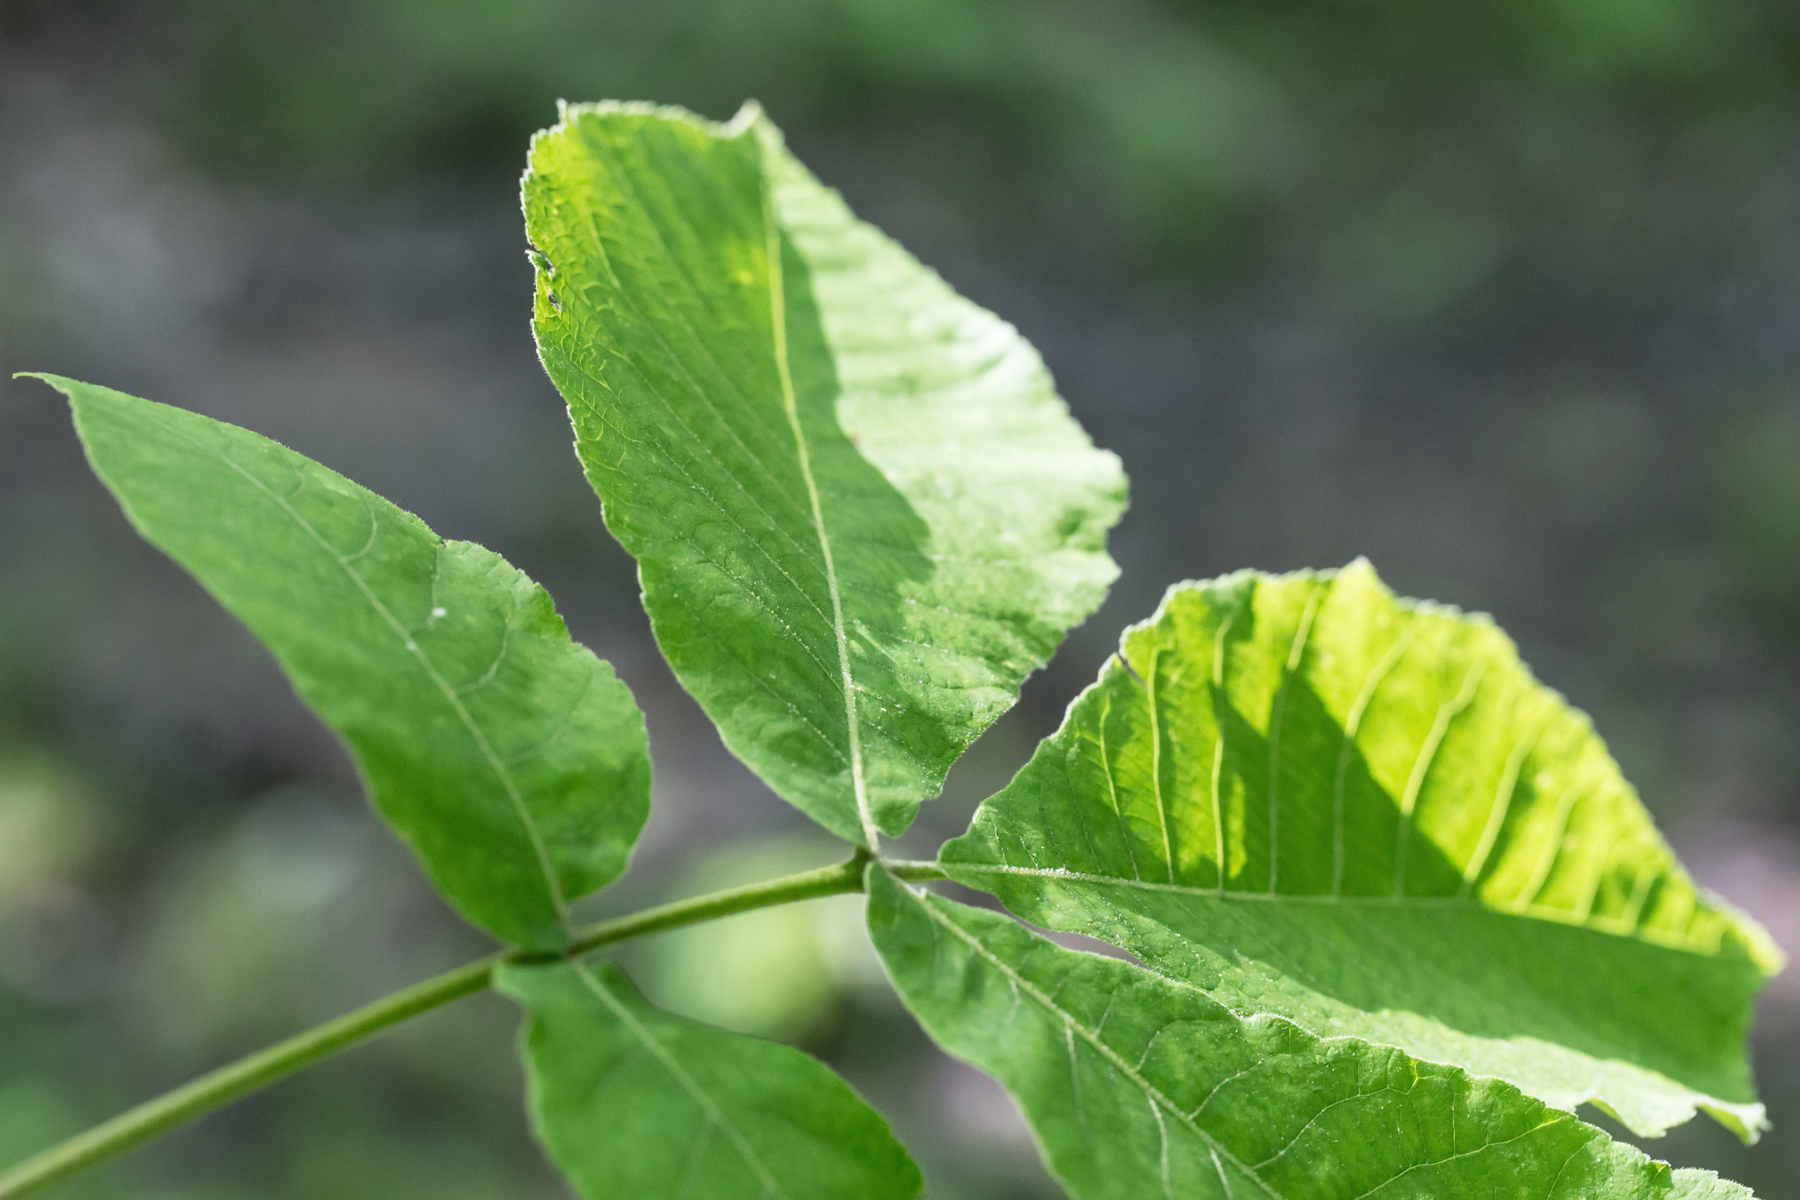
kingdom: Plantae
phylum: Tracheophyta
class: Magnoliopsida
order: Fagales
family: Juglandaceae
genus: Carya
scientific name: Carya ovata
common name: Shagbark hickory
